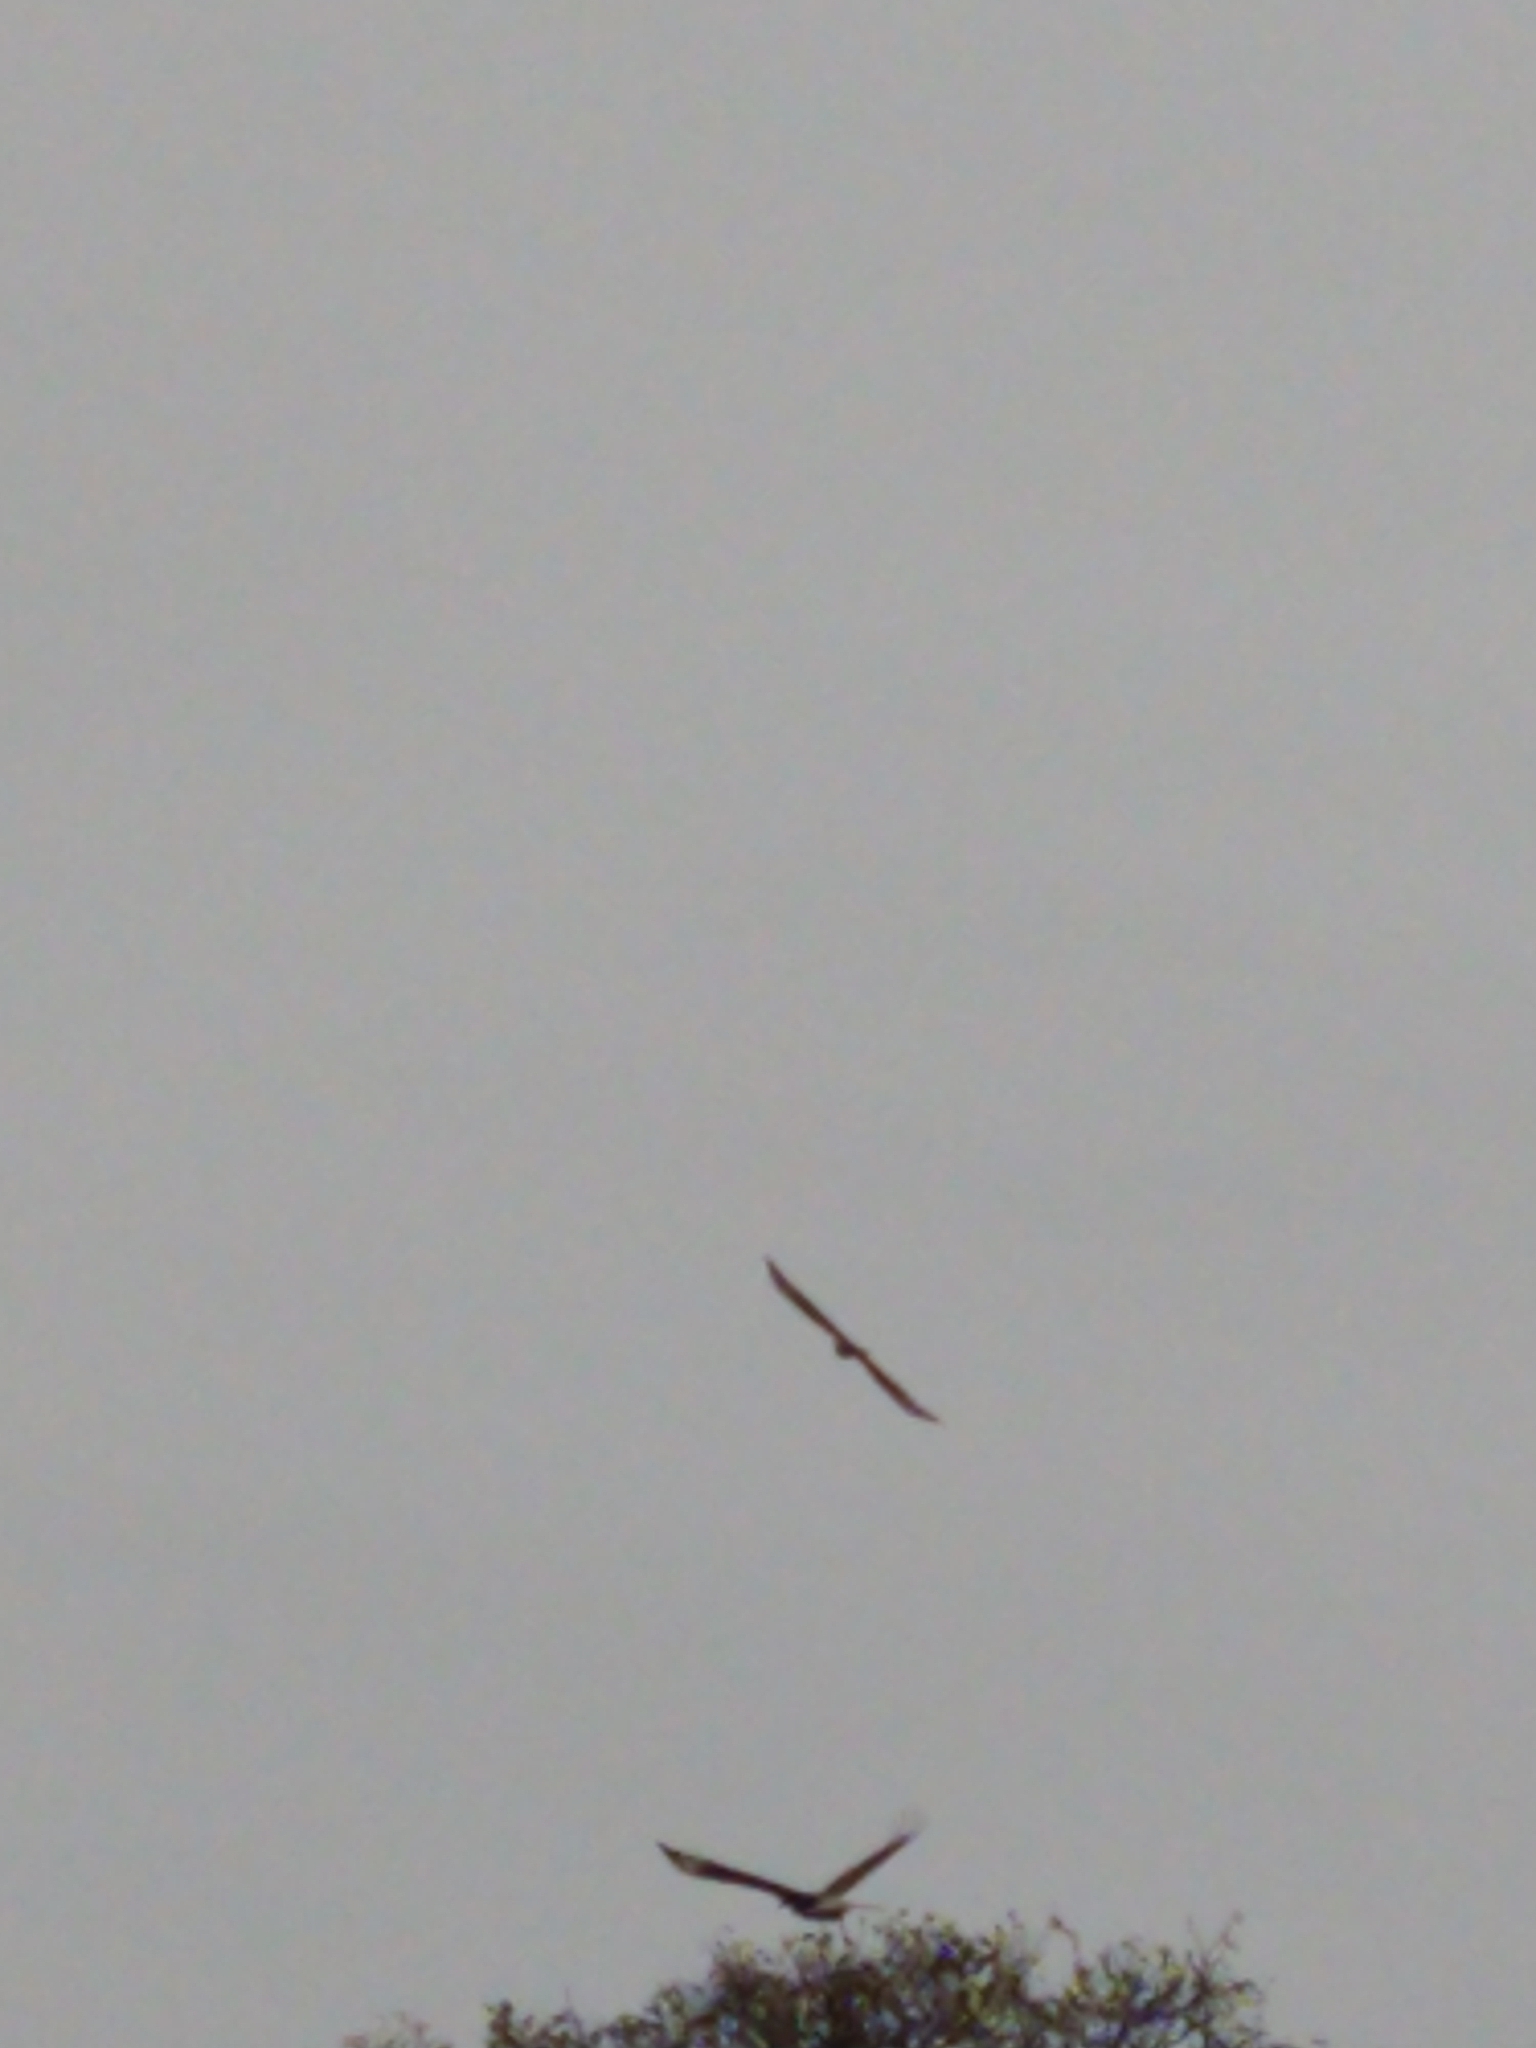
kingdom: Animalia
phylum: Chordata
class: Aves
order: Falconiformes
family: Falconidae
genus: Caracara
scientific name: Caracara plancus
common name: Southern caracara
